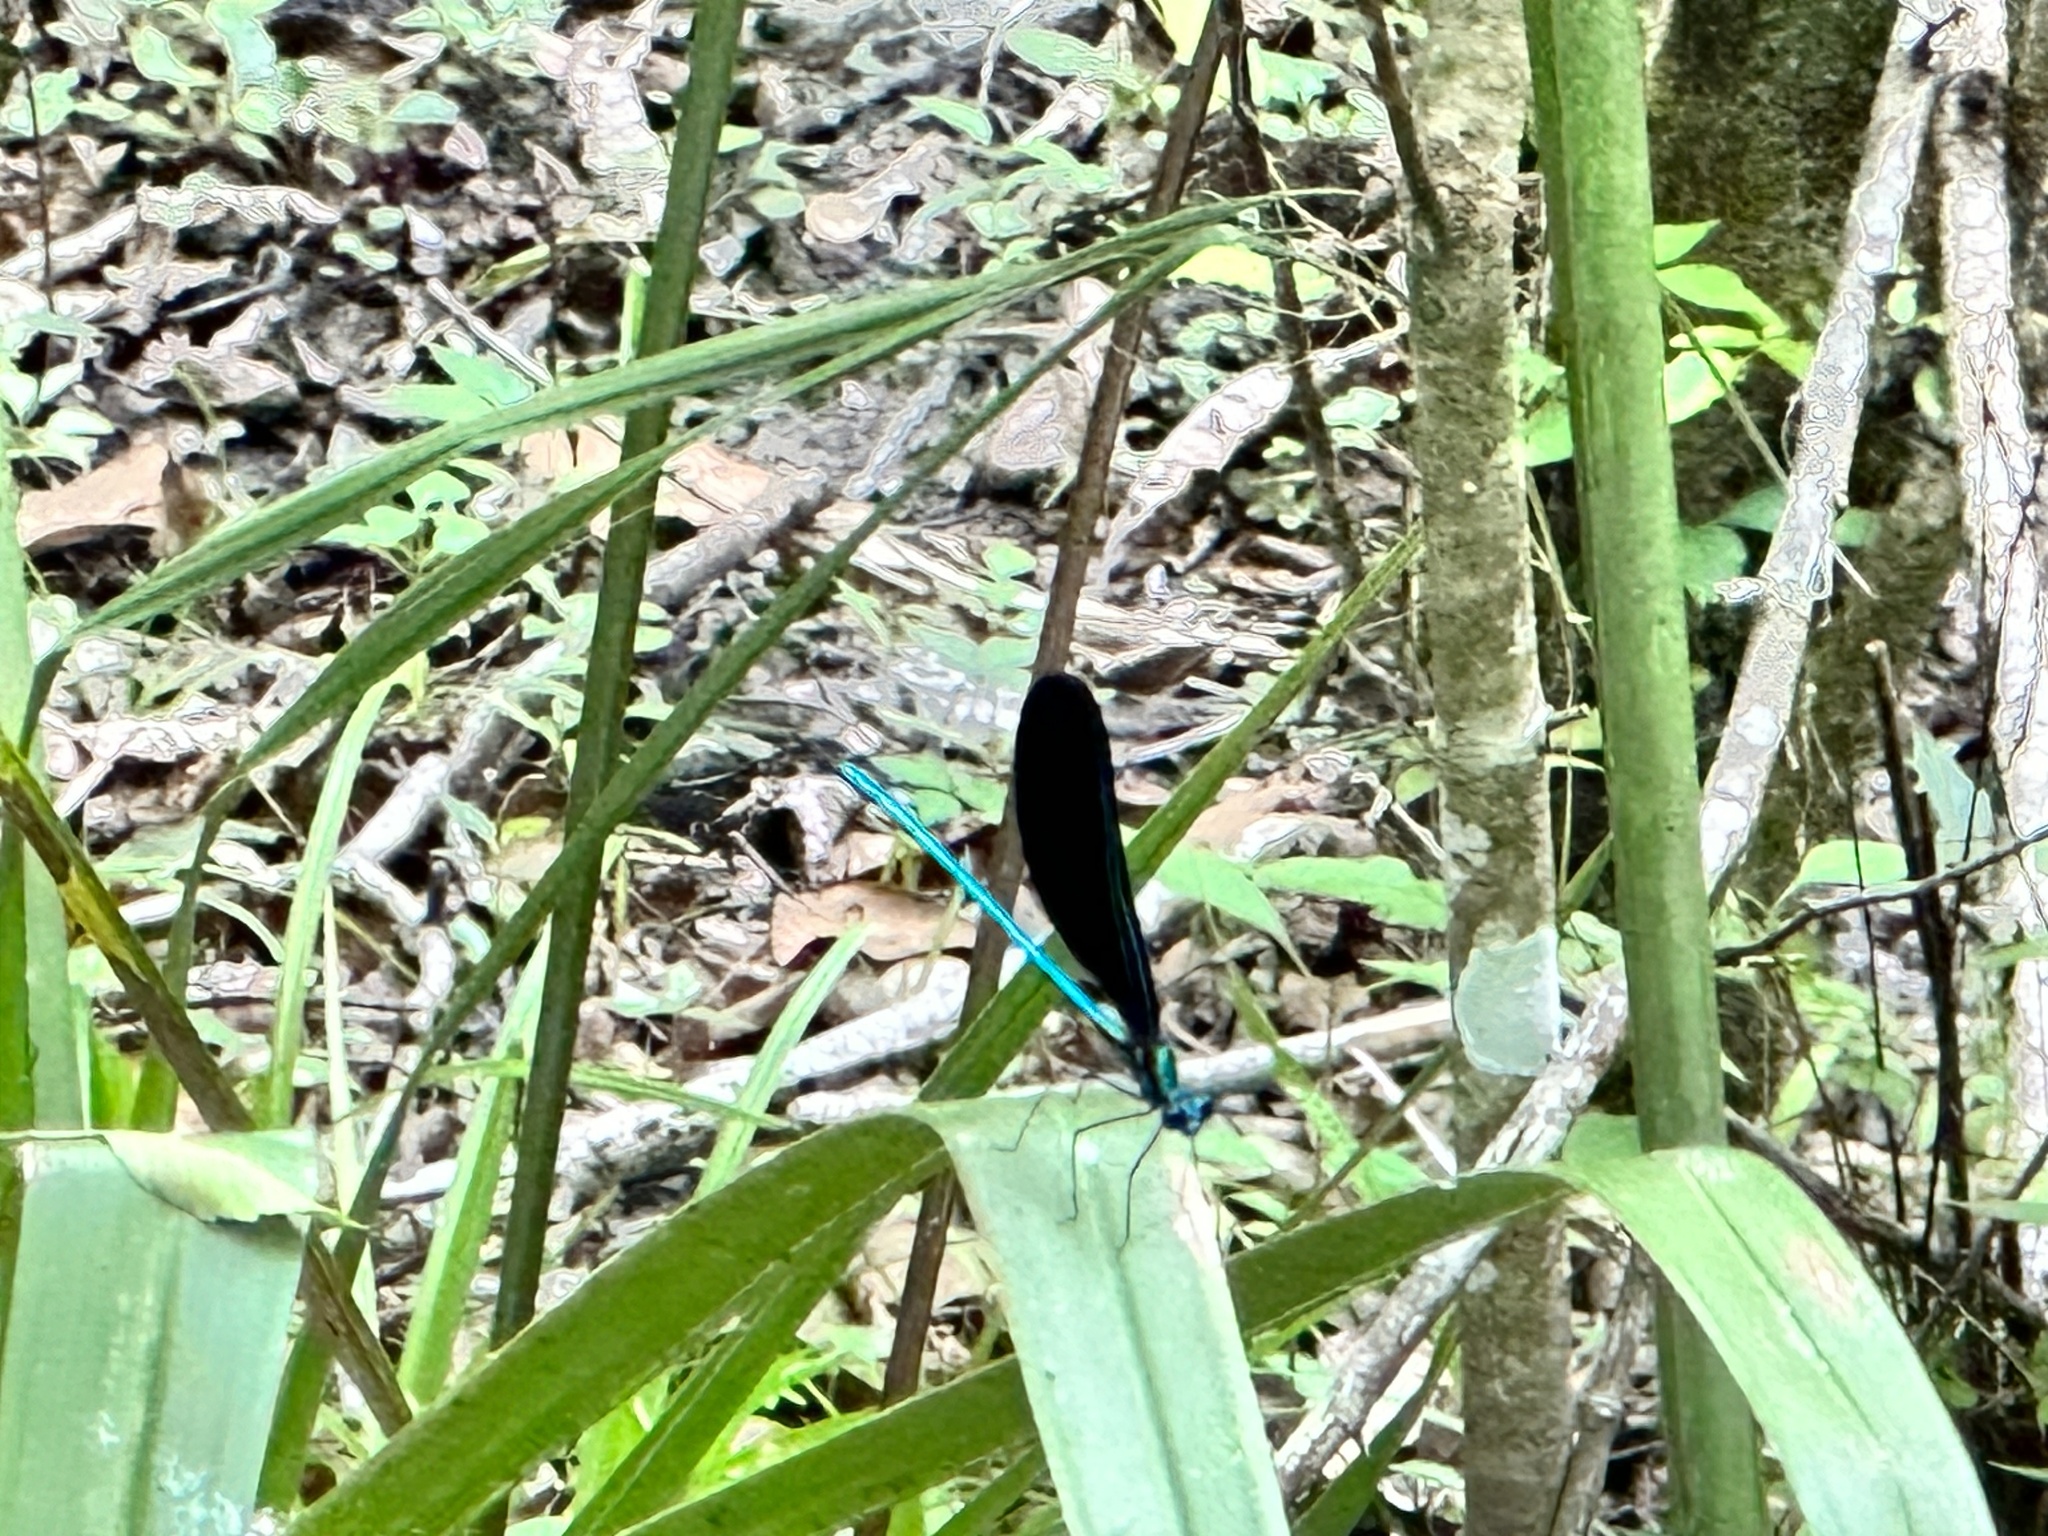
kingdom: Animalia
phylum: Arthropoda
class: Insecta
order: Odonata
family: Calopterygidae
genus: Calopteryx
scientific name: Calopteryx maculata
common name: Ebony jewelwing
